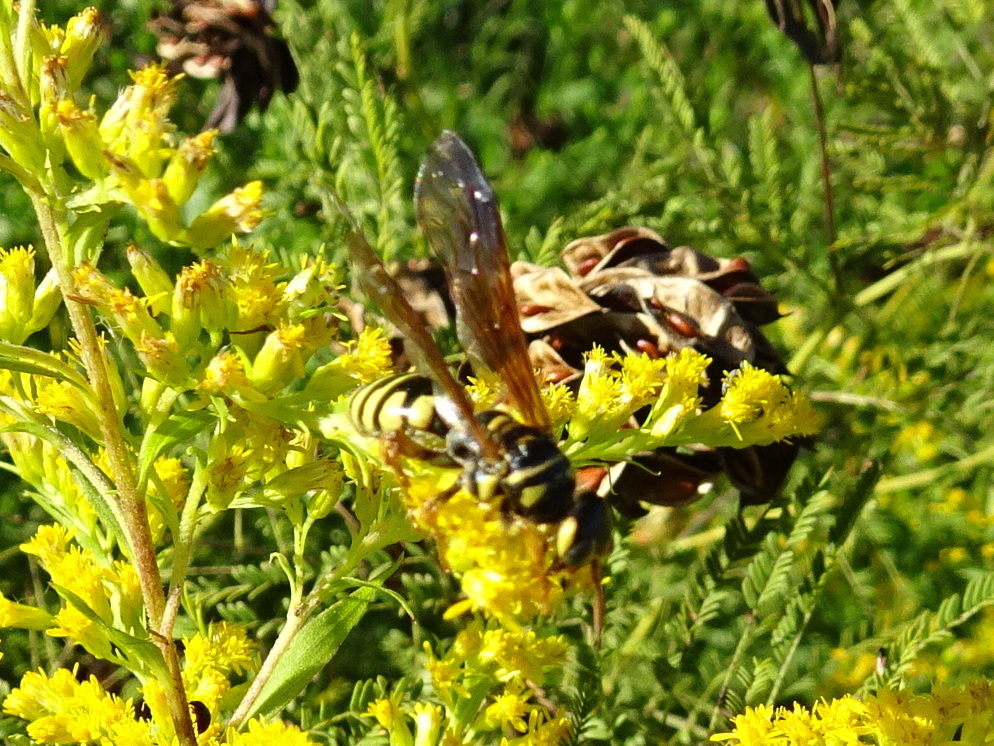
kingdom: Animalia
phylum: Arthropoda
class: Insecta
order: Hymenoptera
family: Tiphiidae
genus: Myzinum
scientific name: Myzinum quinquecinctum
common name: Five-banded thynnid wasp
